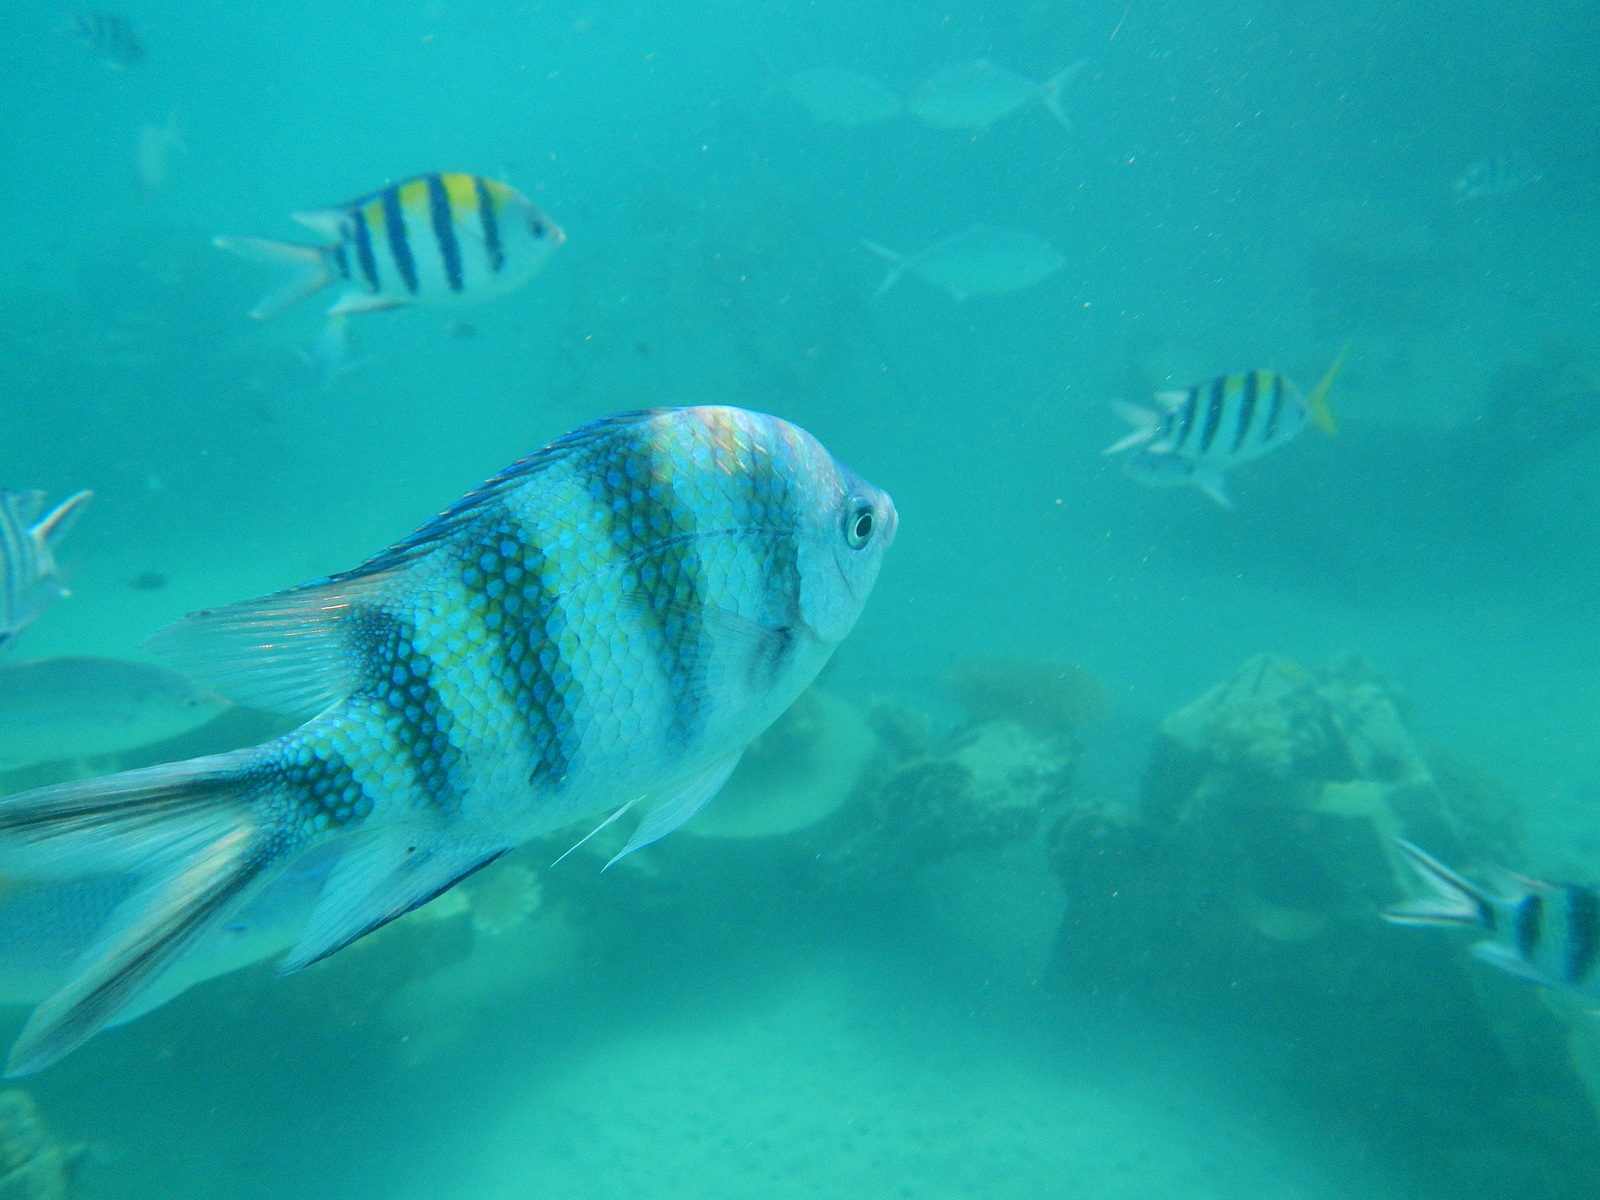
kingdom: Animalia
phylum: Chordata
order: Perciformes
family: Pomacentridae
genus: Abudefduf
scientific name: Abudefduf sexfasciatus
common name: Scissortail sergeant
